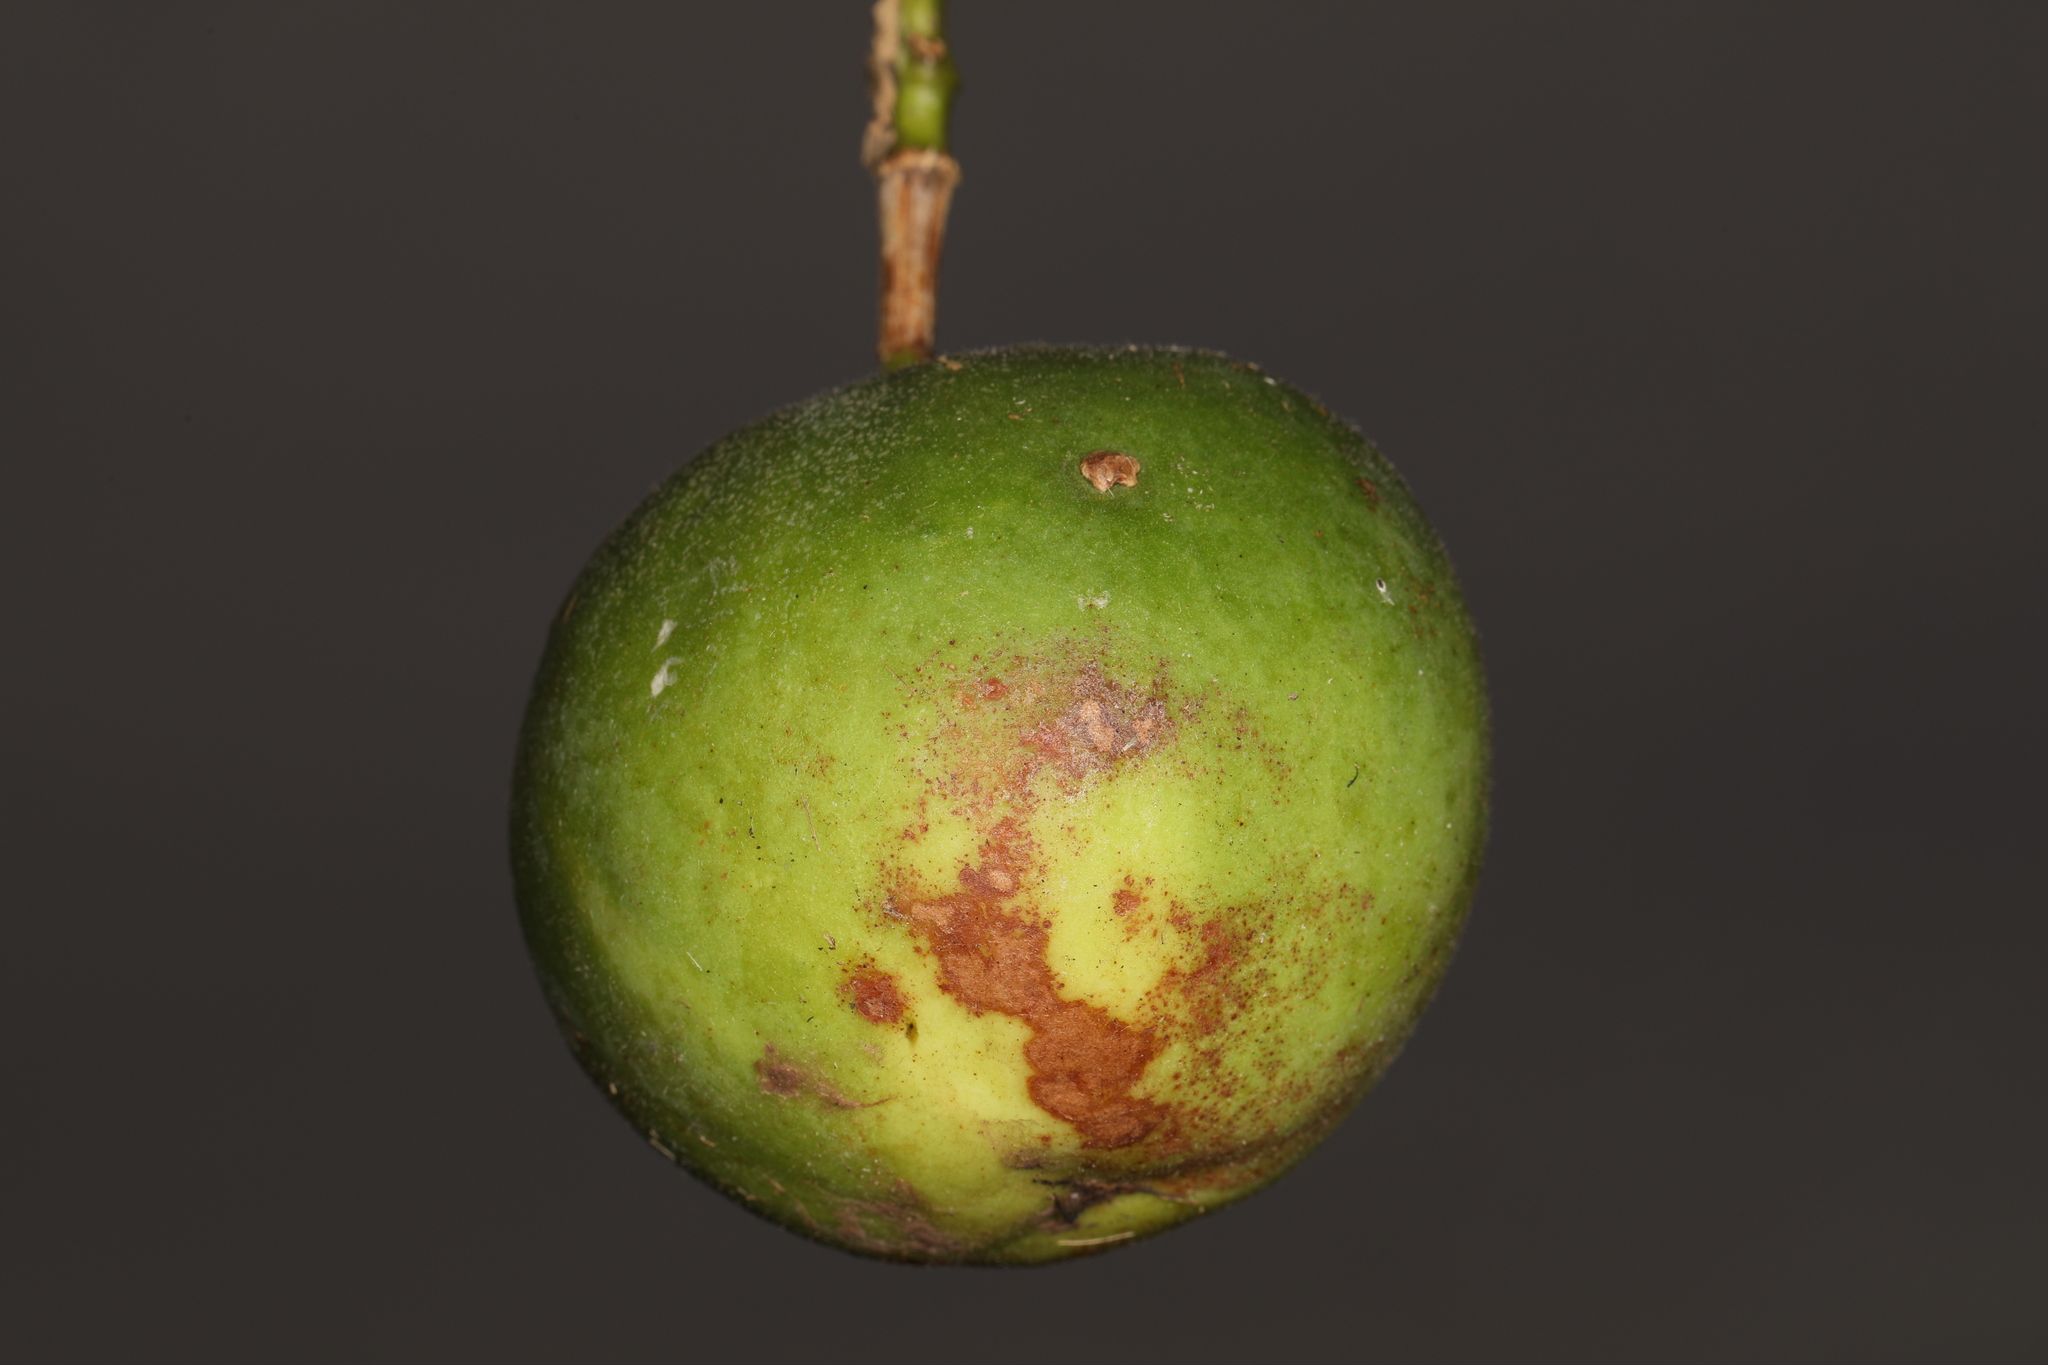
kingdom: Plantae
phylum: Tracheophyta
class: Magnoliopsida
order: Malpighiales
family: Passifloraceae
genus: Passiflora
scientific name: Passiflora incarnata
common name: Apricot-vine
